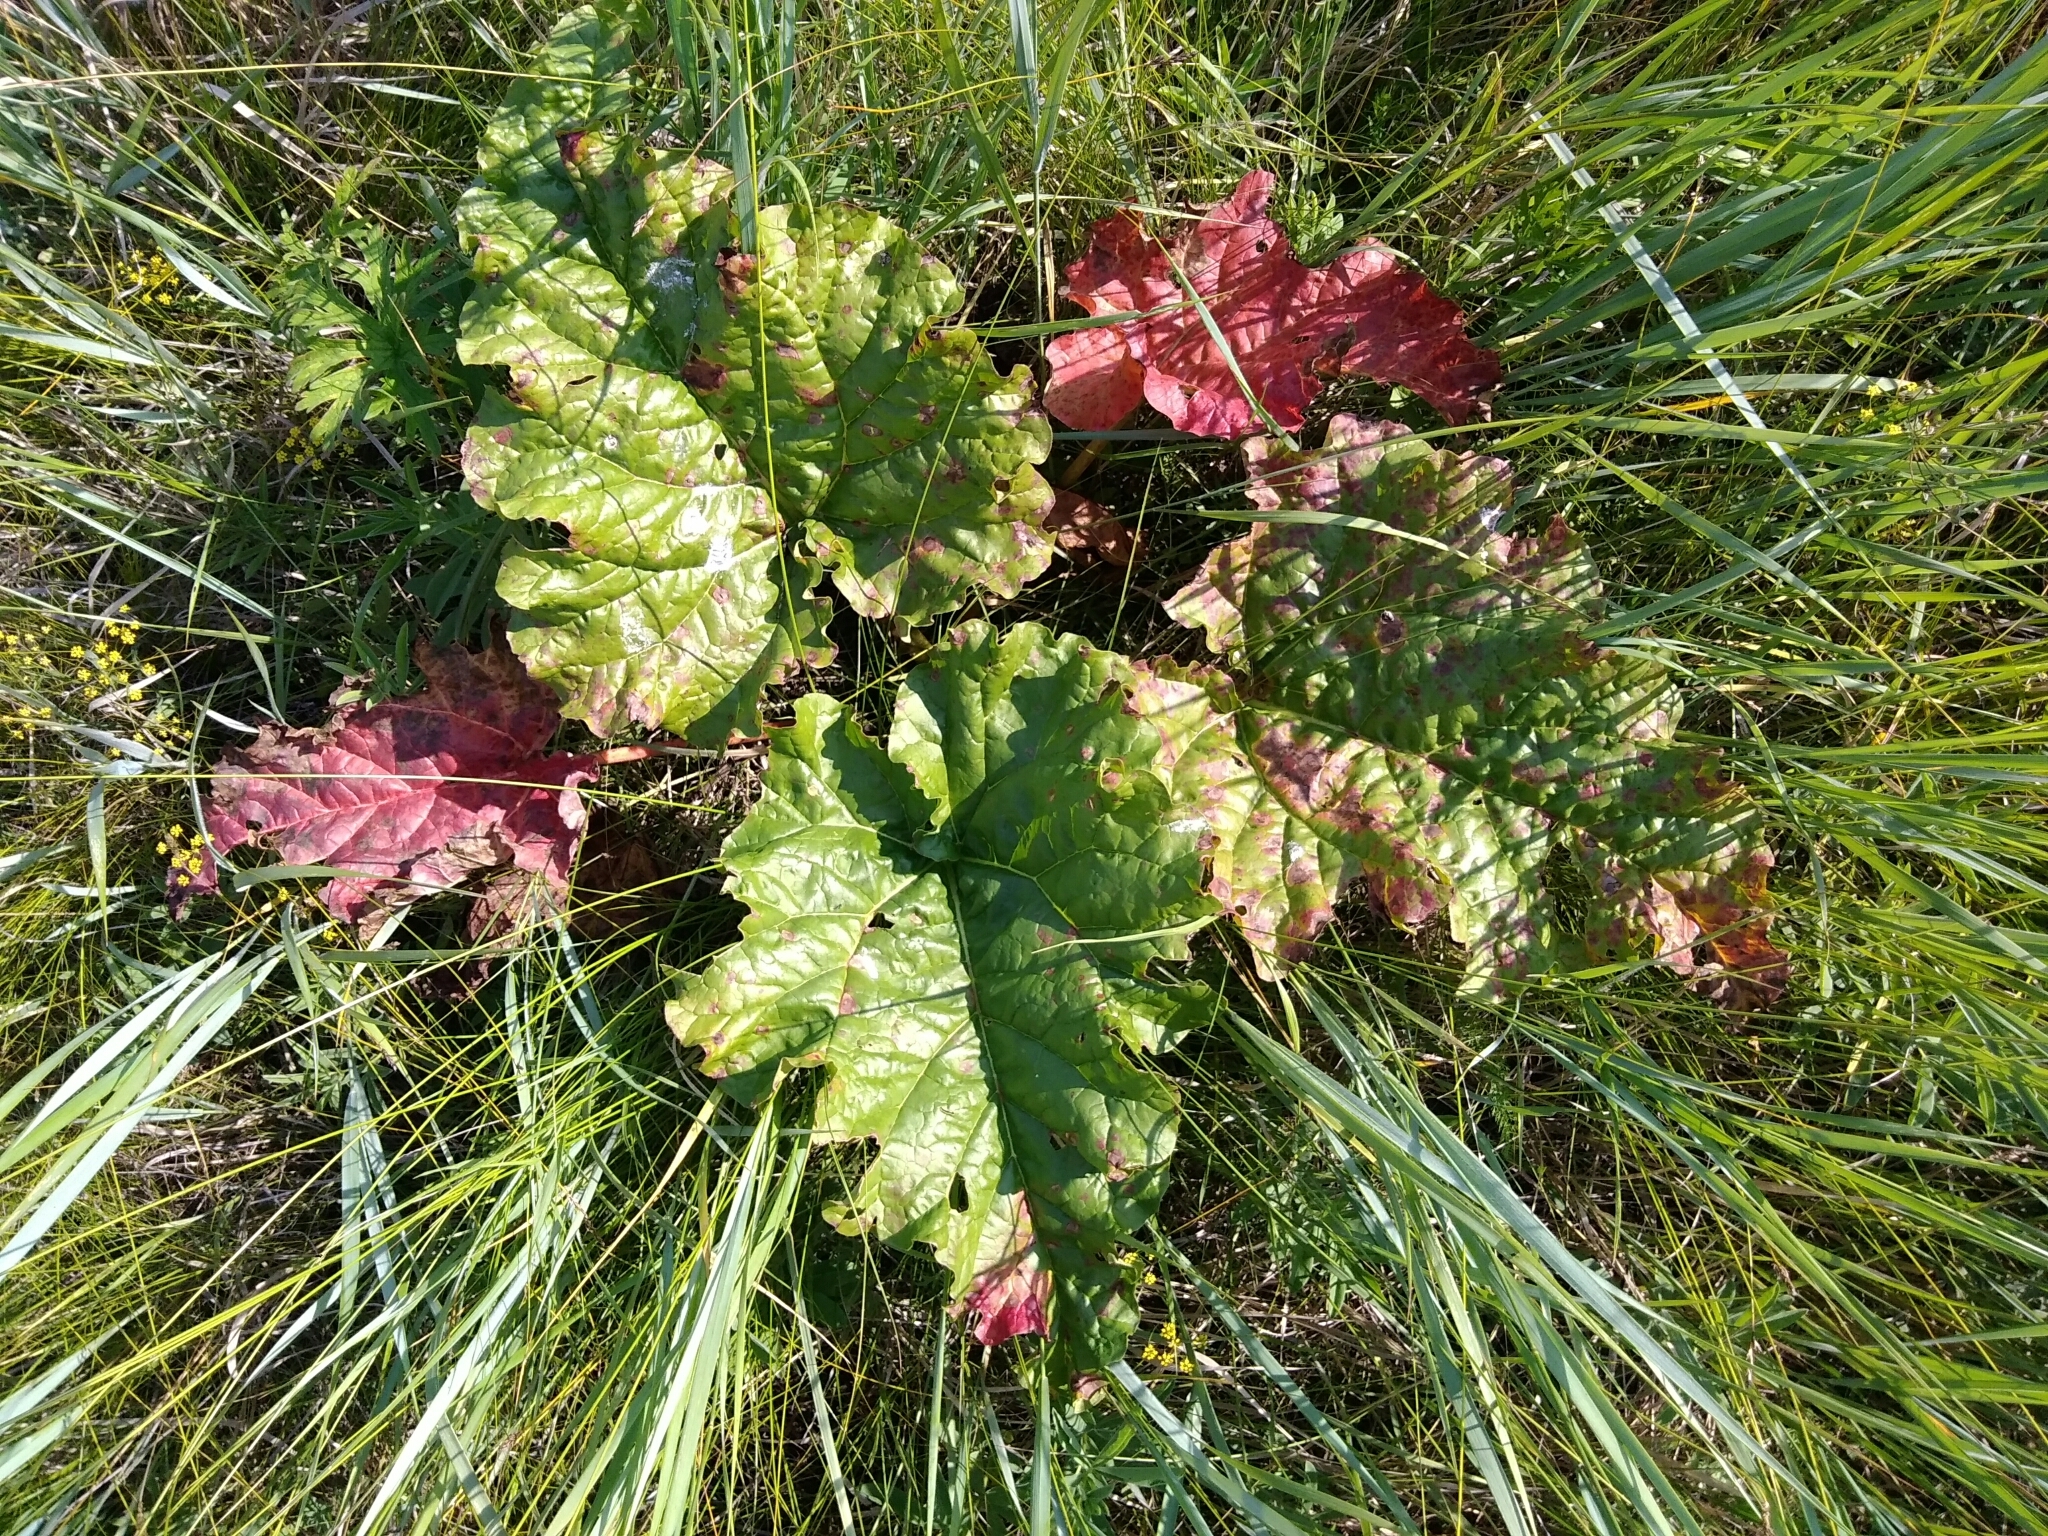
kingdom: Plantae
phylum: Tracheophyta
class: Magnoliopsida
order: Caryophyllales
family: Polygonaceae
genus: Rheum
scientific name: Rheum rhabarbarum
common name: Garden rhubarb
